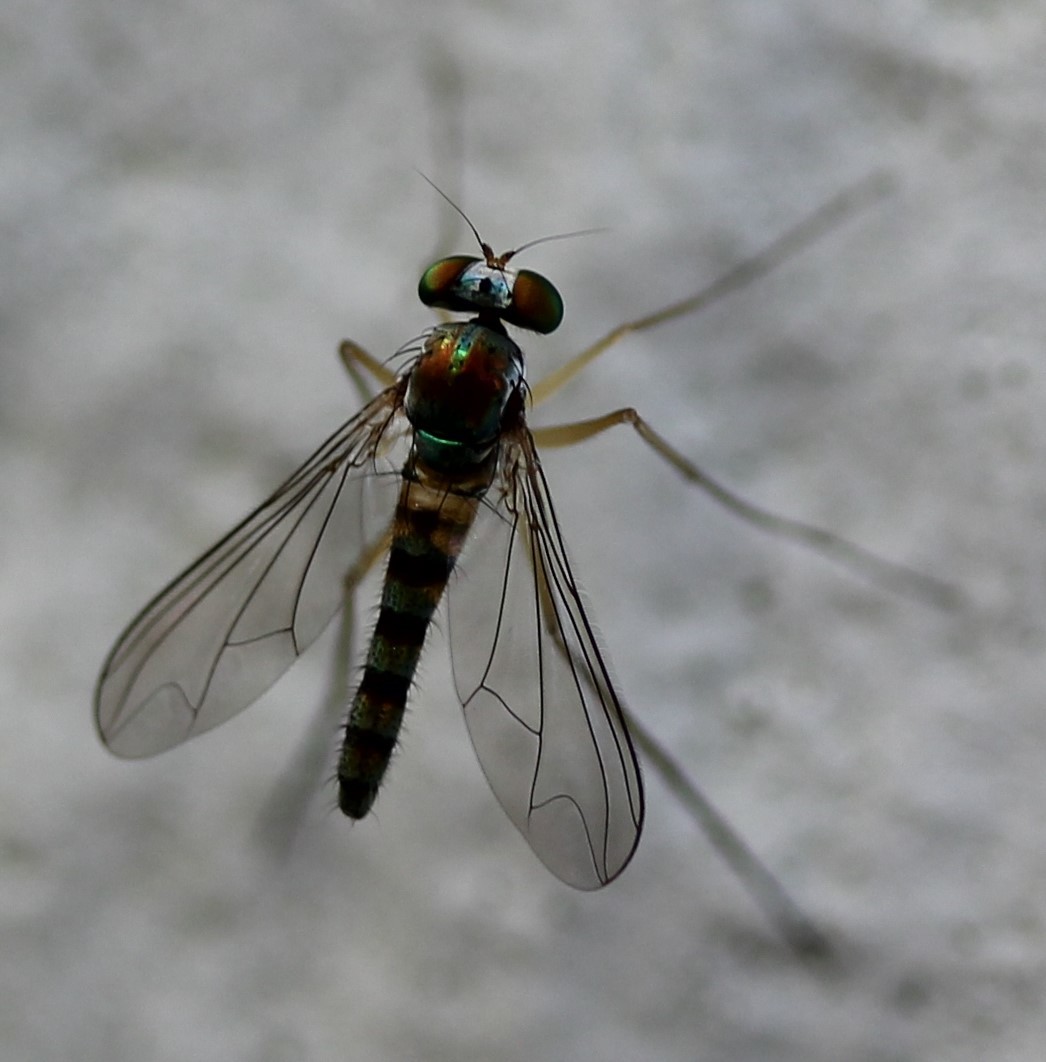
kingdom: Animalia
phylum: Arthropoda
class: Insecta
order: Diptera
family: Dolichopodidae
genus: Amblypsilopus
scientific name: Amblypsilopus variegatus
